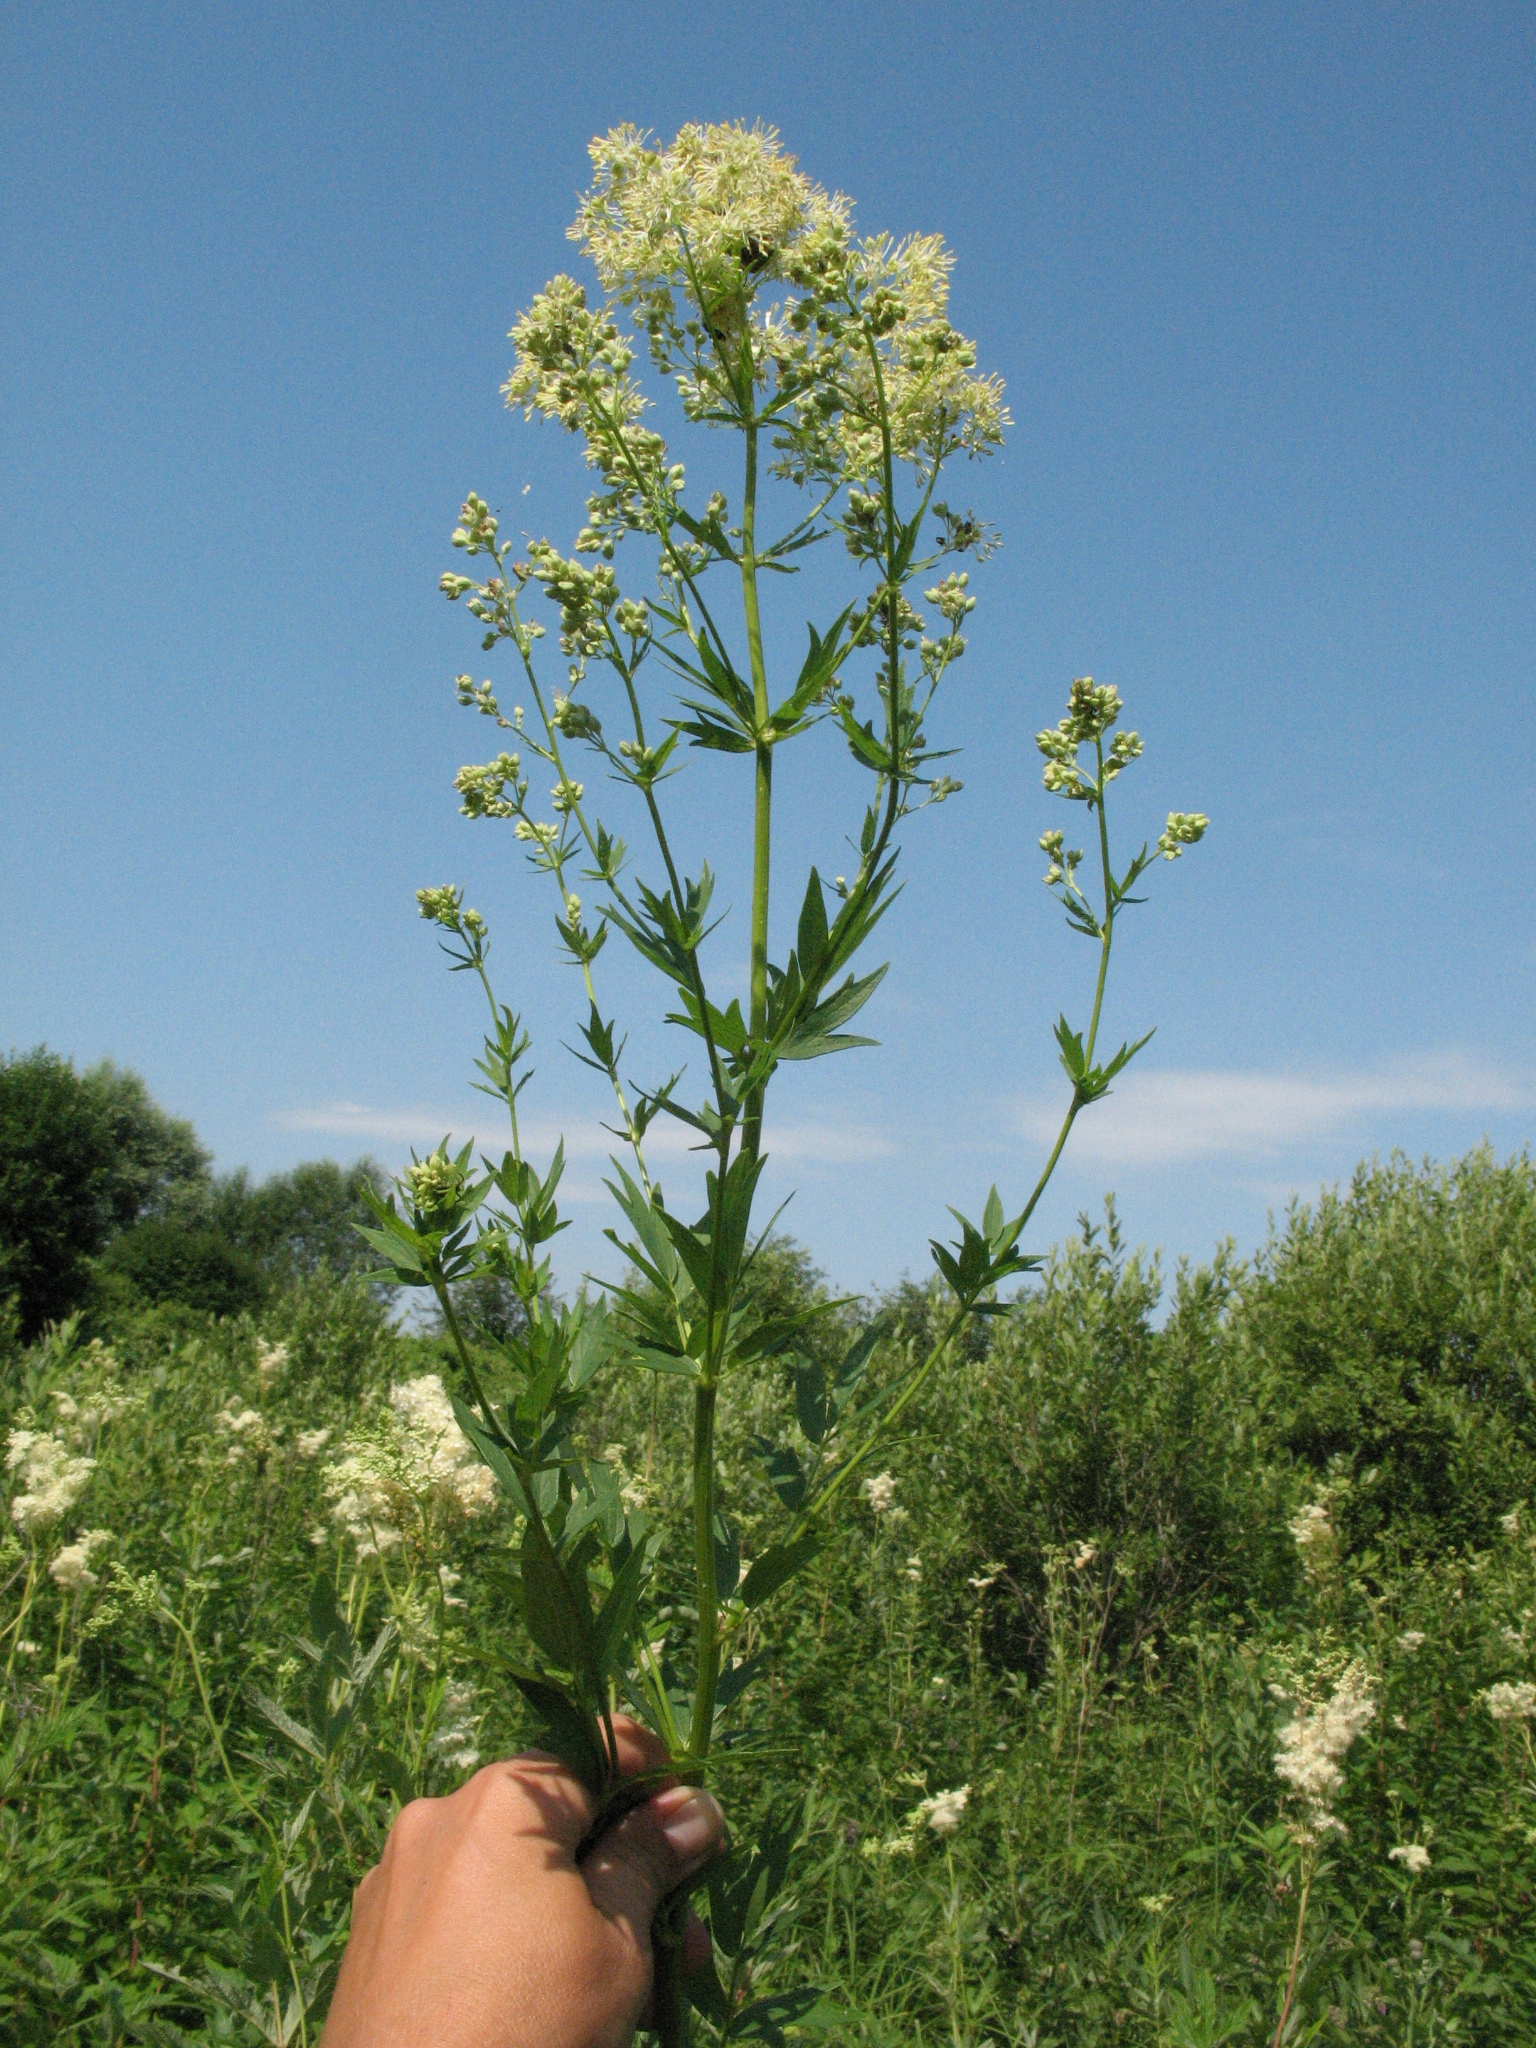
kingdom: Plantae
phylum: Tracheophyta
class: Magnoliopsida
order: Ranunculales
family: Ranunculaceae
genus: Thalictrum
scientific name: Thalictrum flavum
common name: Common meadow-rue
